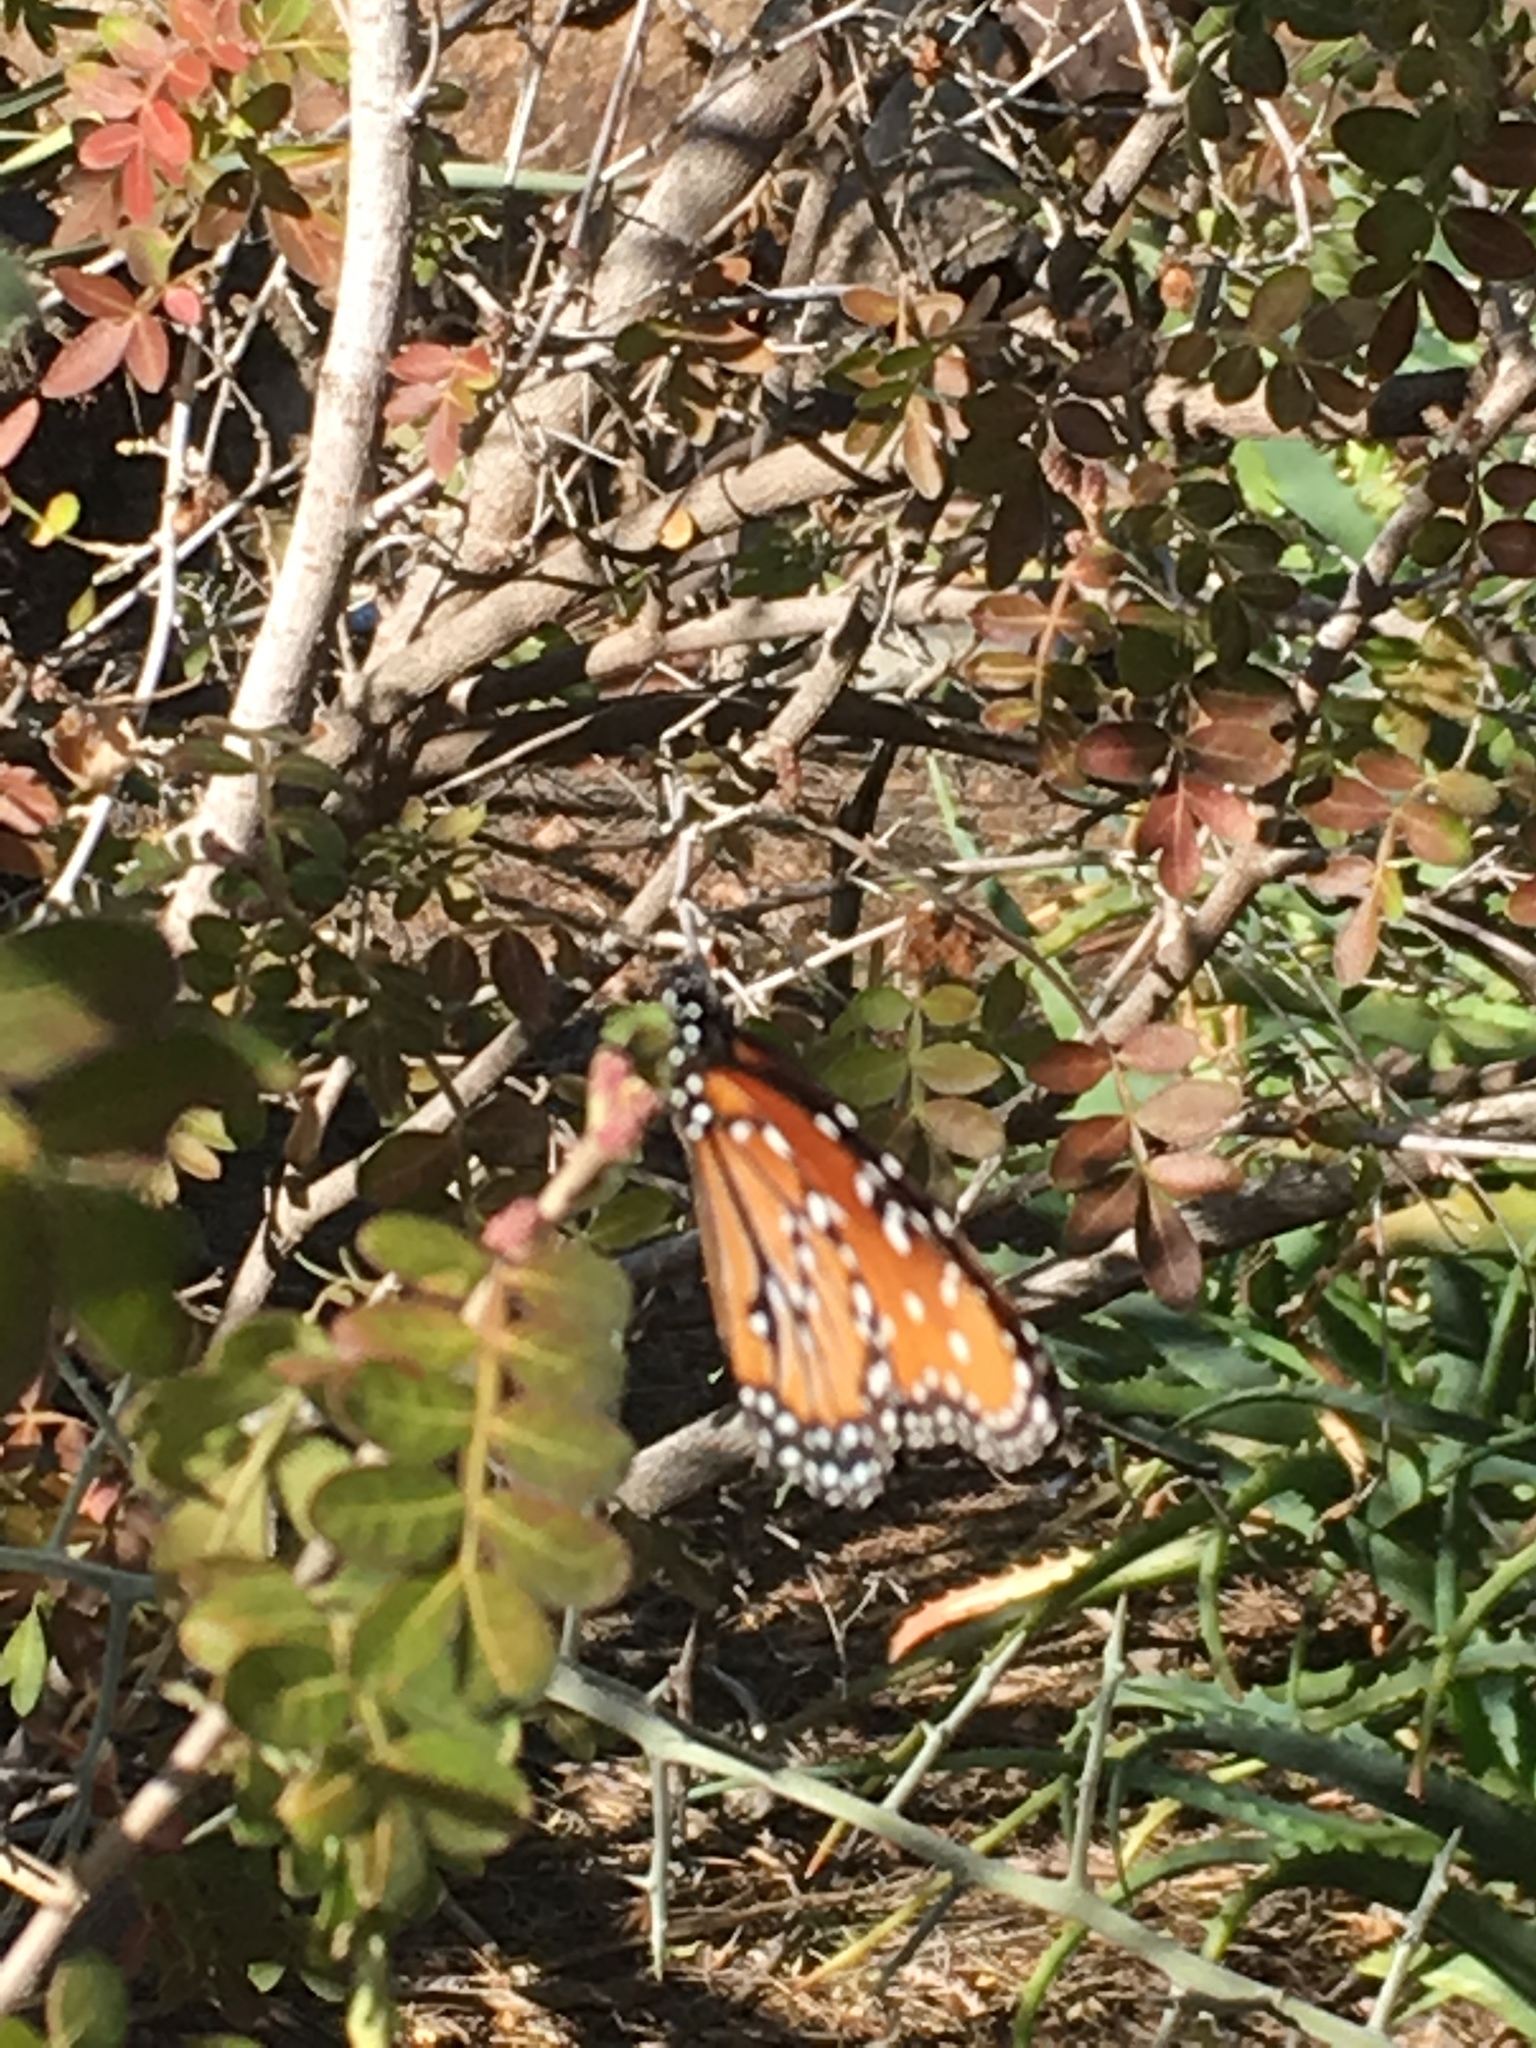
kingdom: Animalia
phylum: Arthropoda
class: Insecta
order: Lepidoptera
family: Nymphalidae
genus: Danaus
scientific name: Danaus gilippus
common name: Queen
